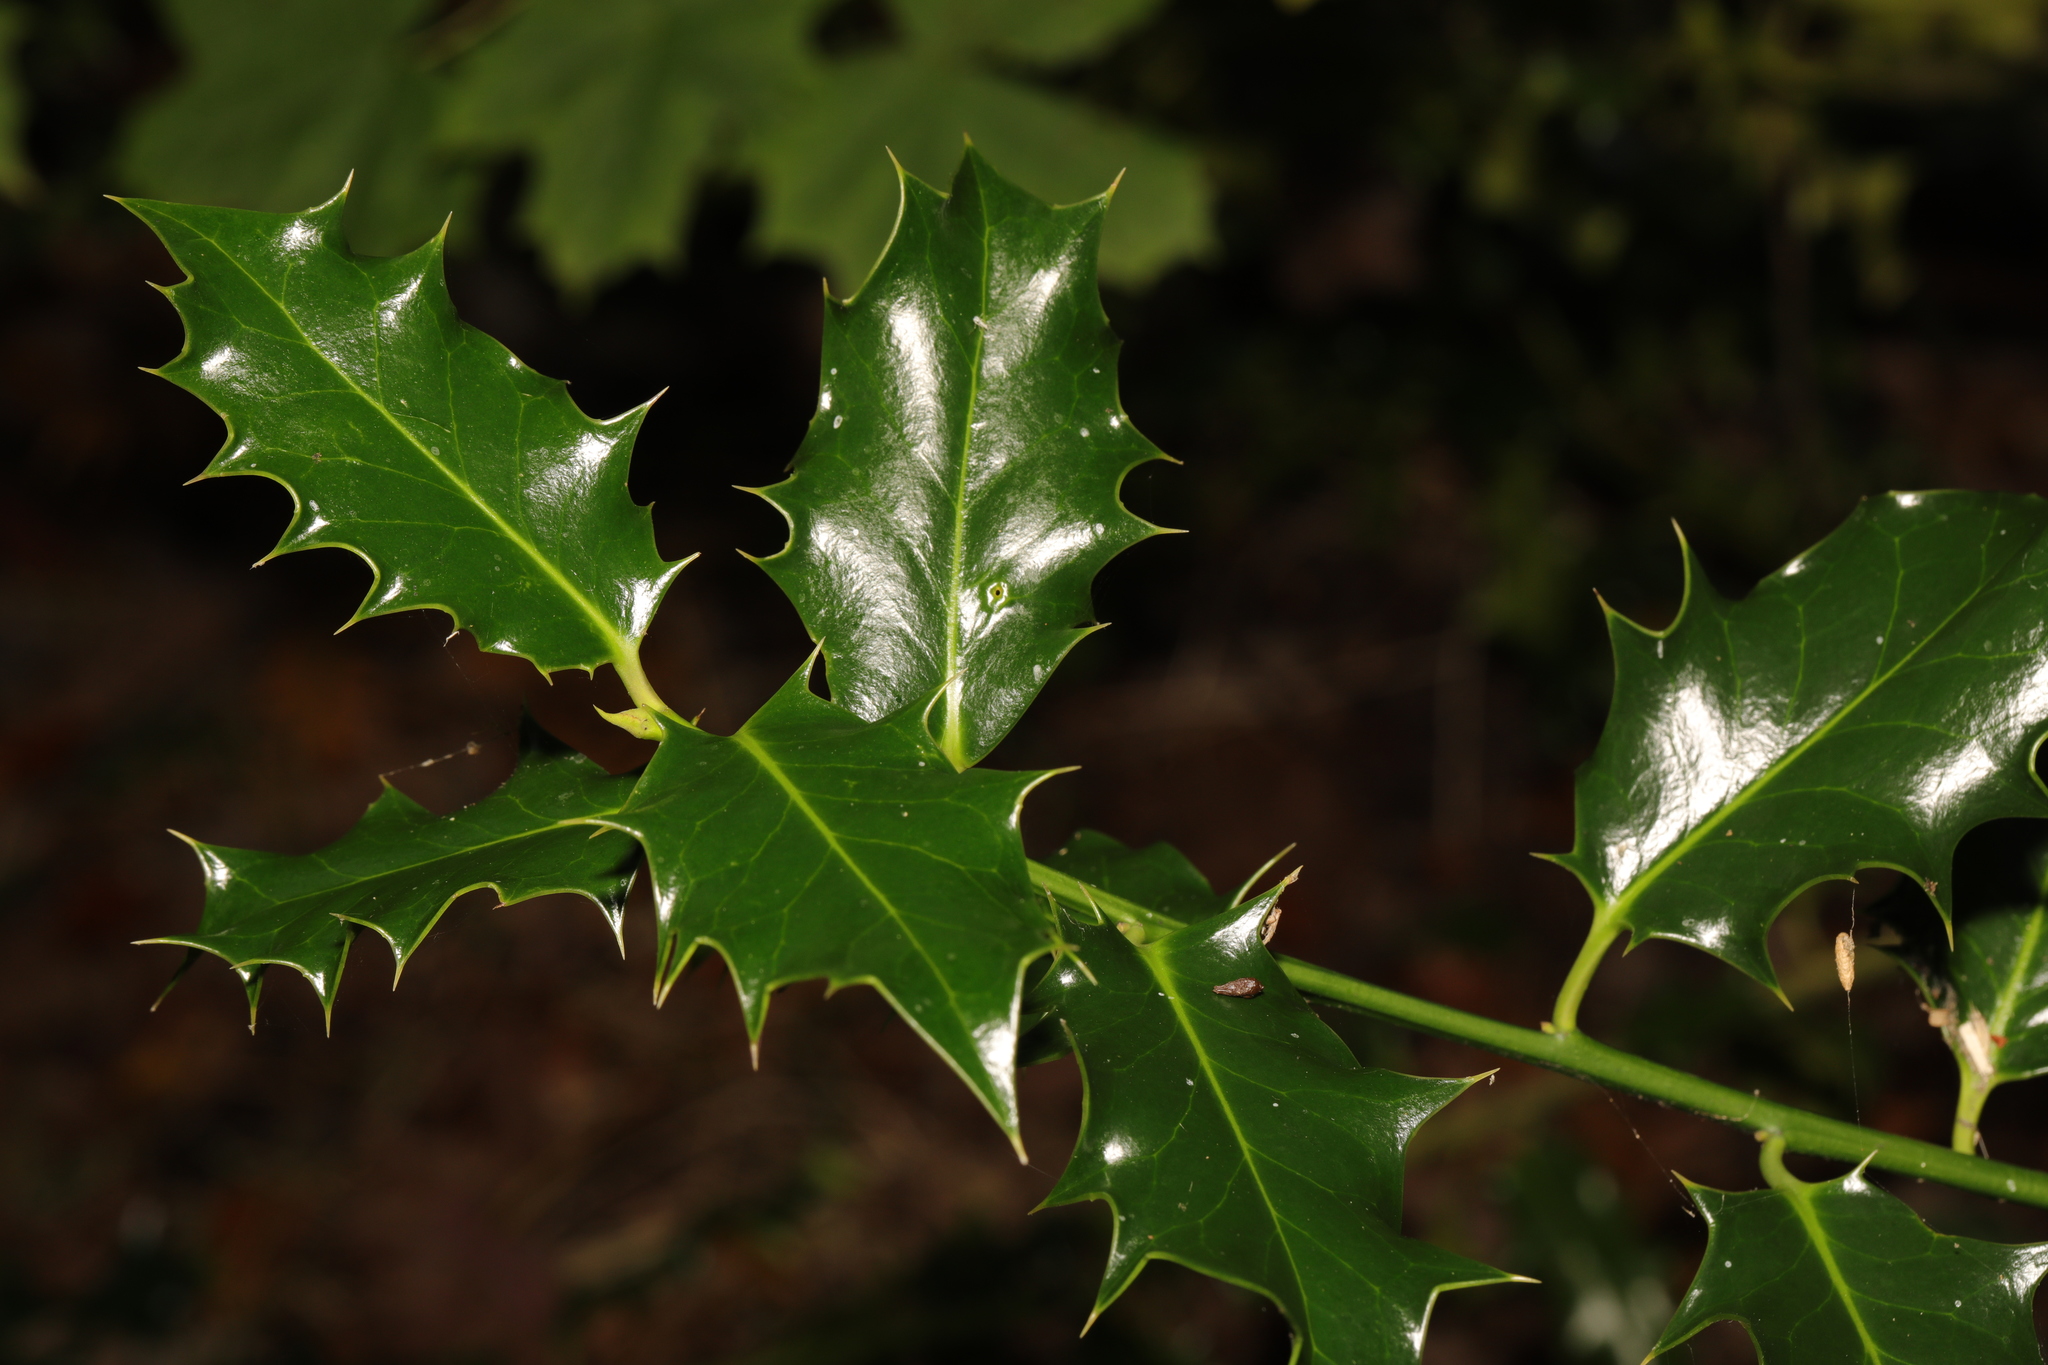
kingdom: Plantae
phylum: Tracheophyta
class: Magnoliopsida
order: Aquifoliales
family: Aquifoliaceae
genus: Ilex
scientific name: Ilex aquifolium
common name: English holly
